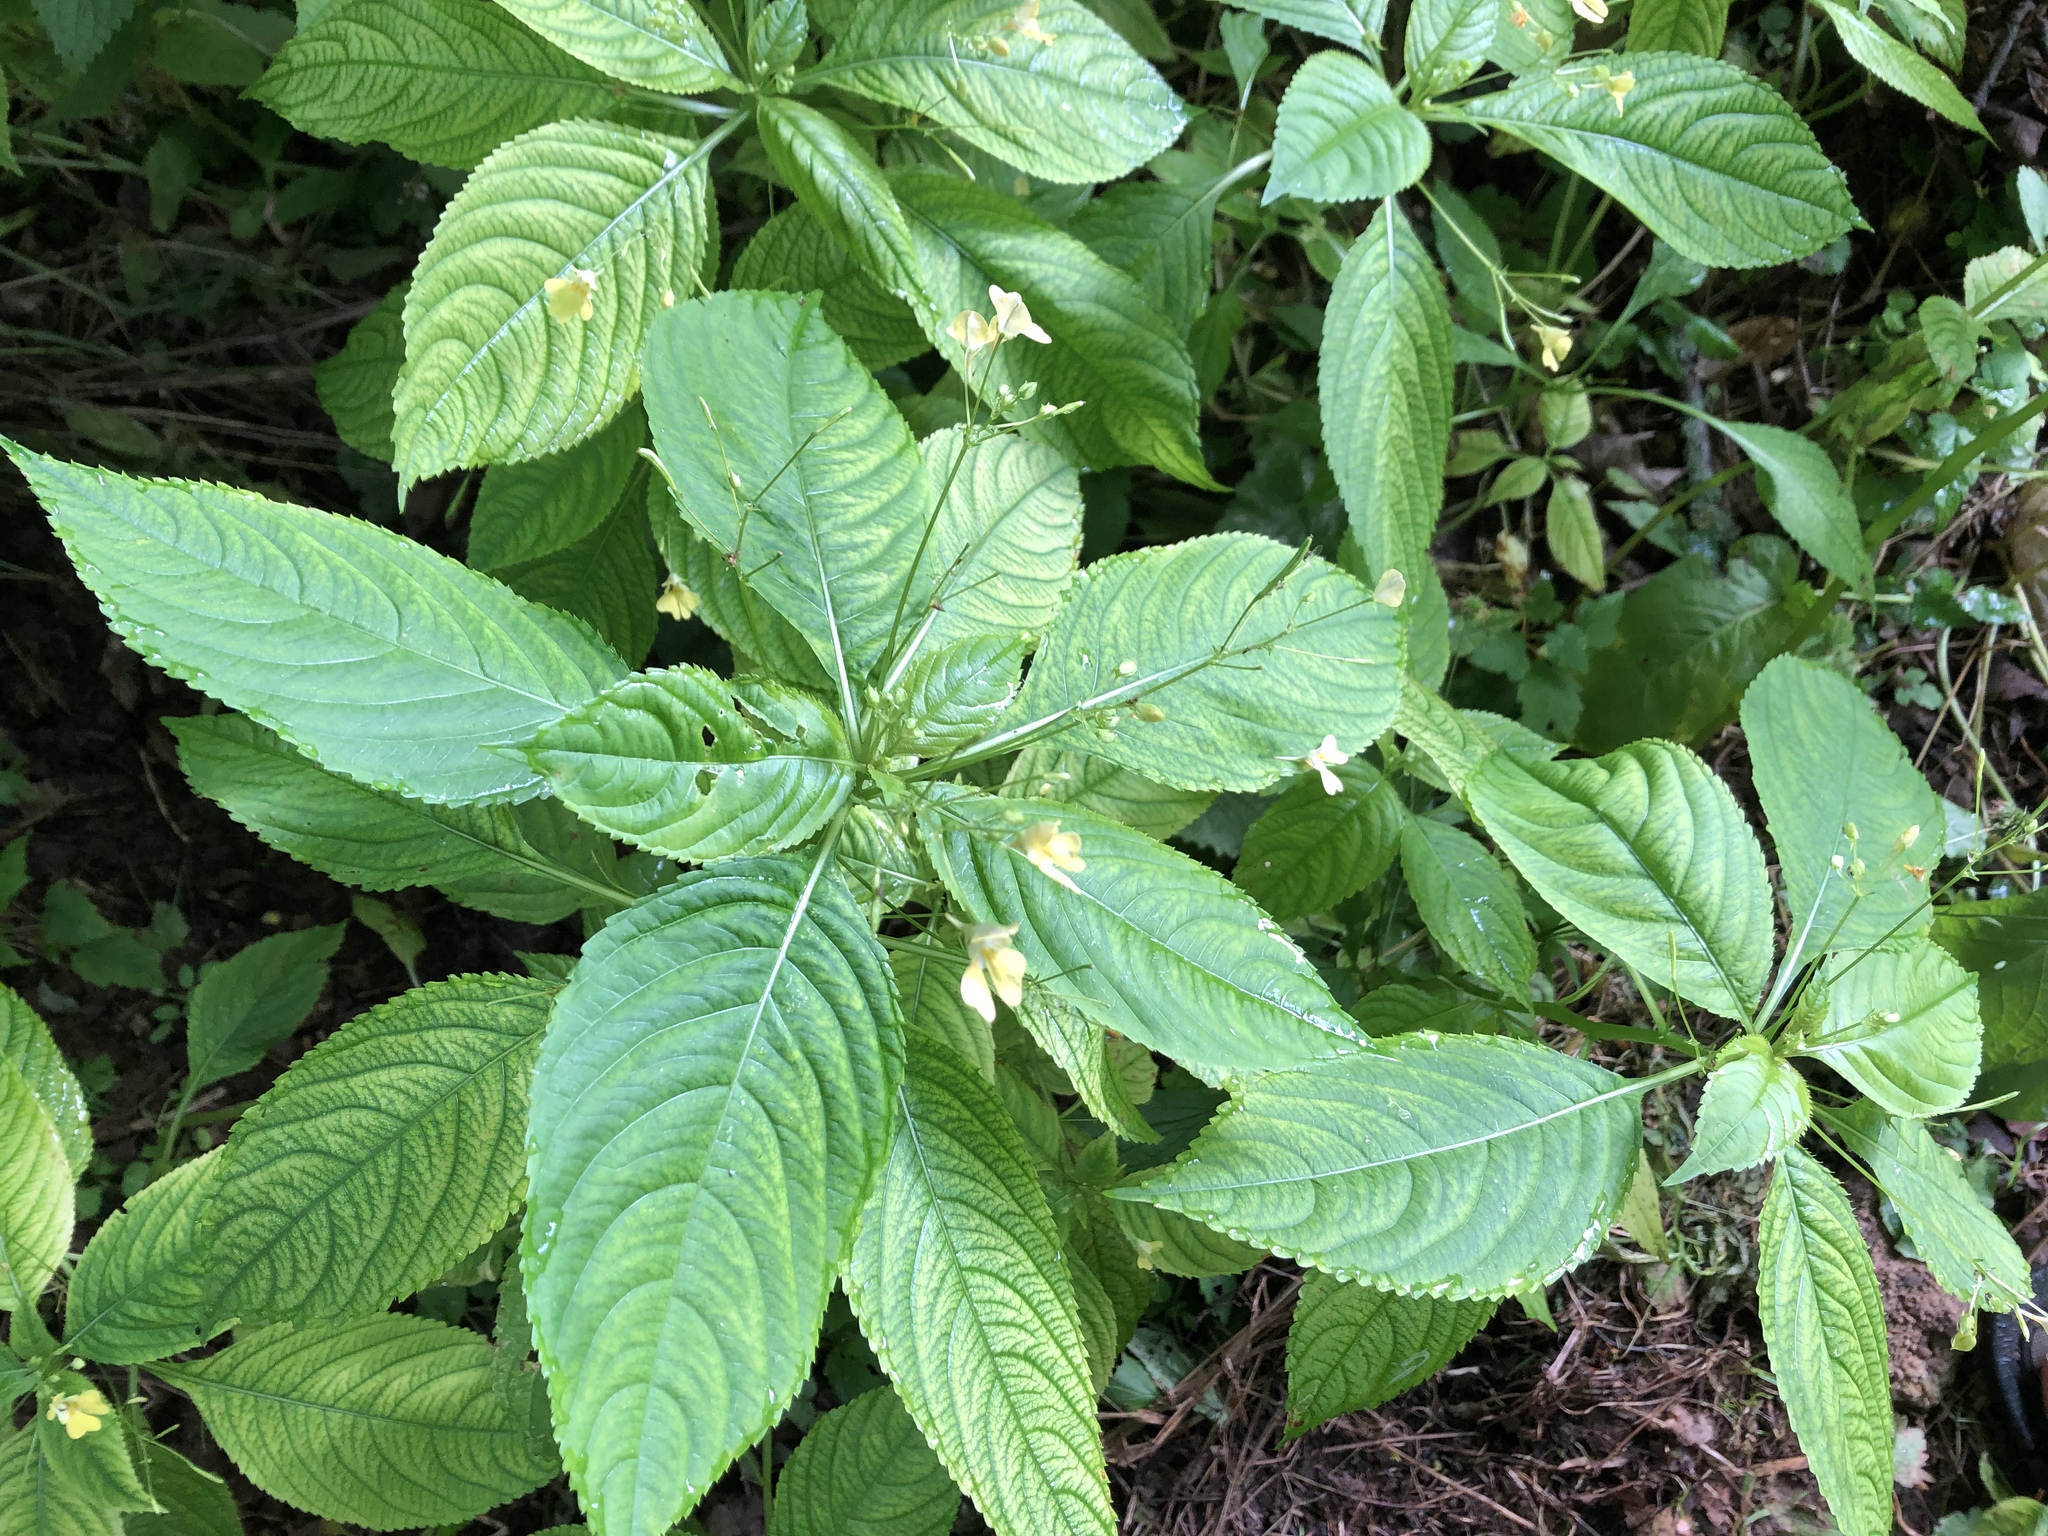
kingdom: Plantae
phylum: Tracheophyta
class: Magnoliopsida
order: Ericales
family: Balsaminaceae
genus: Impatiens
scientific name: Impatiens parviflora
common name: Small balsam
